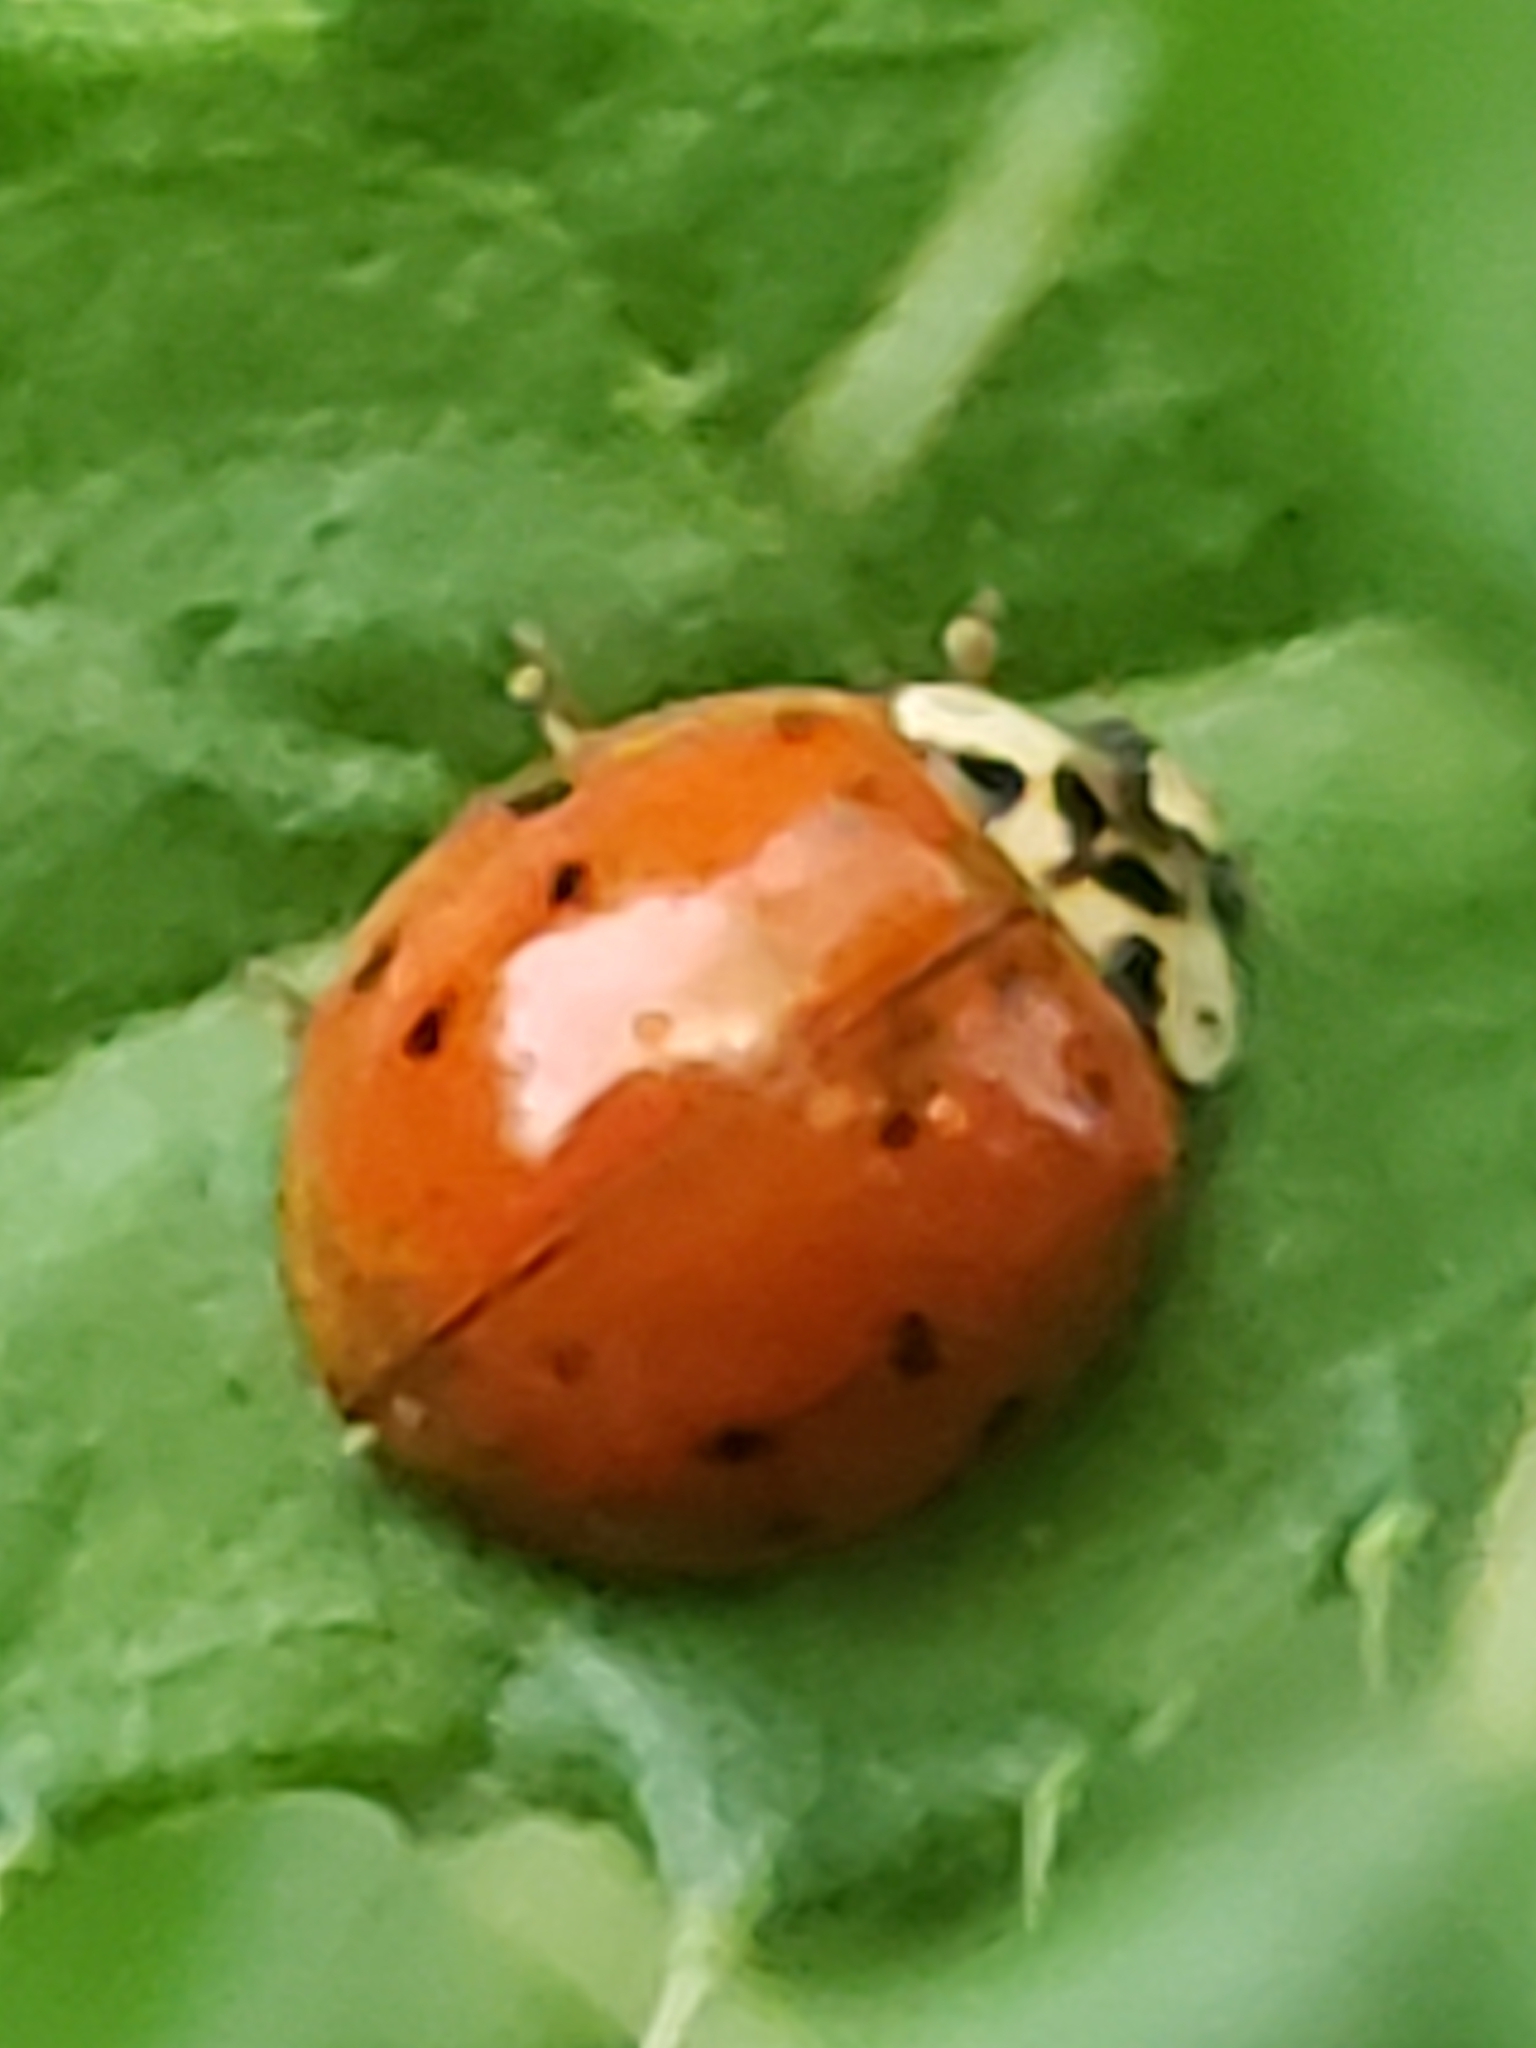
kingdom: Animalia
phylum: Arthropoda
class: Insecta
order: Coleoptera
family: Coccinellidae
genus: Harmonia
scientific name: Harmonia axyridis
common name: Harlequin ladybird
